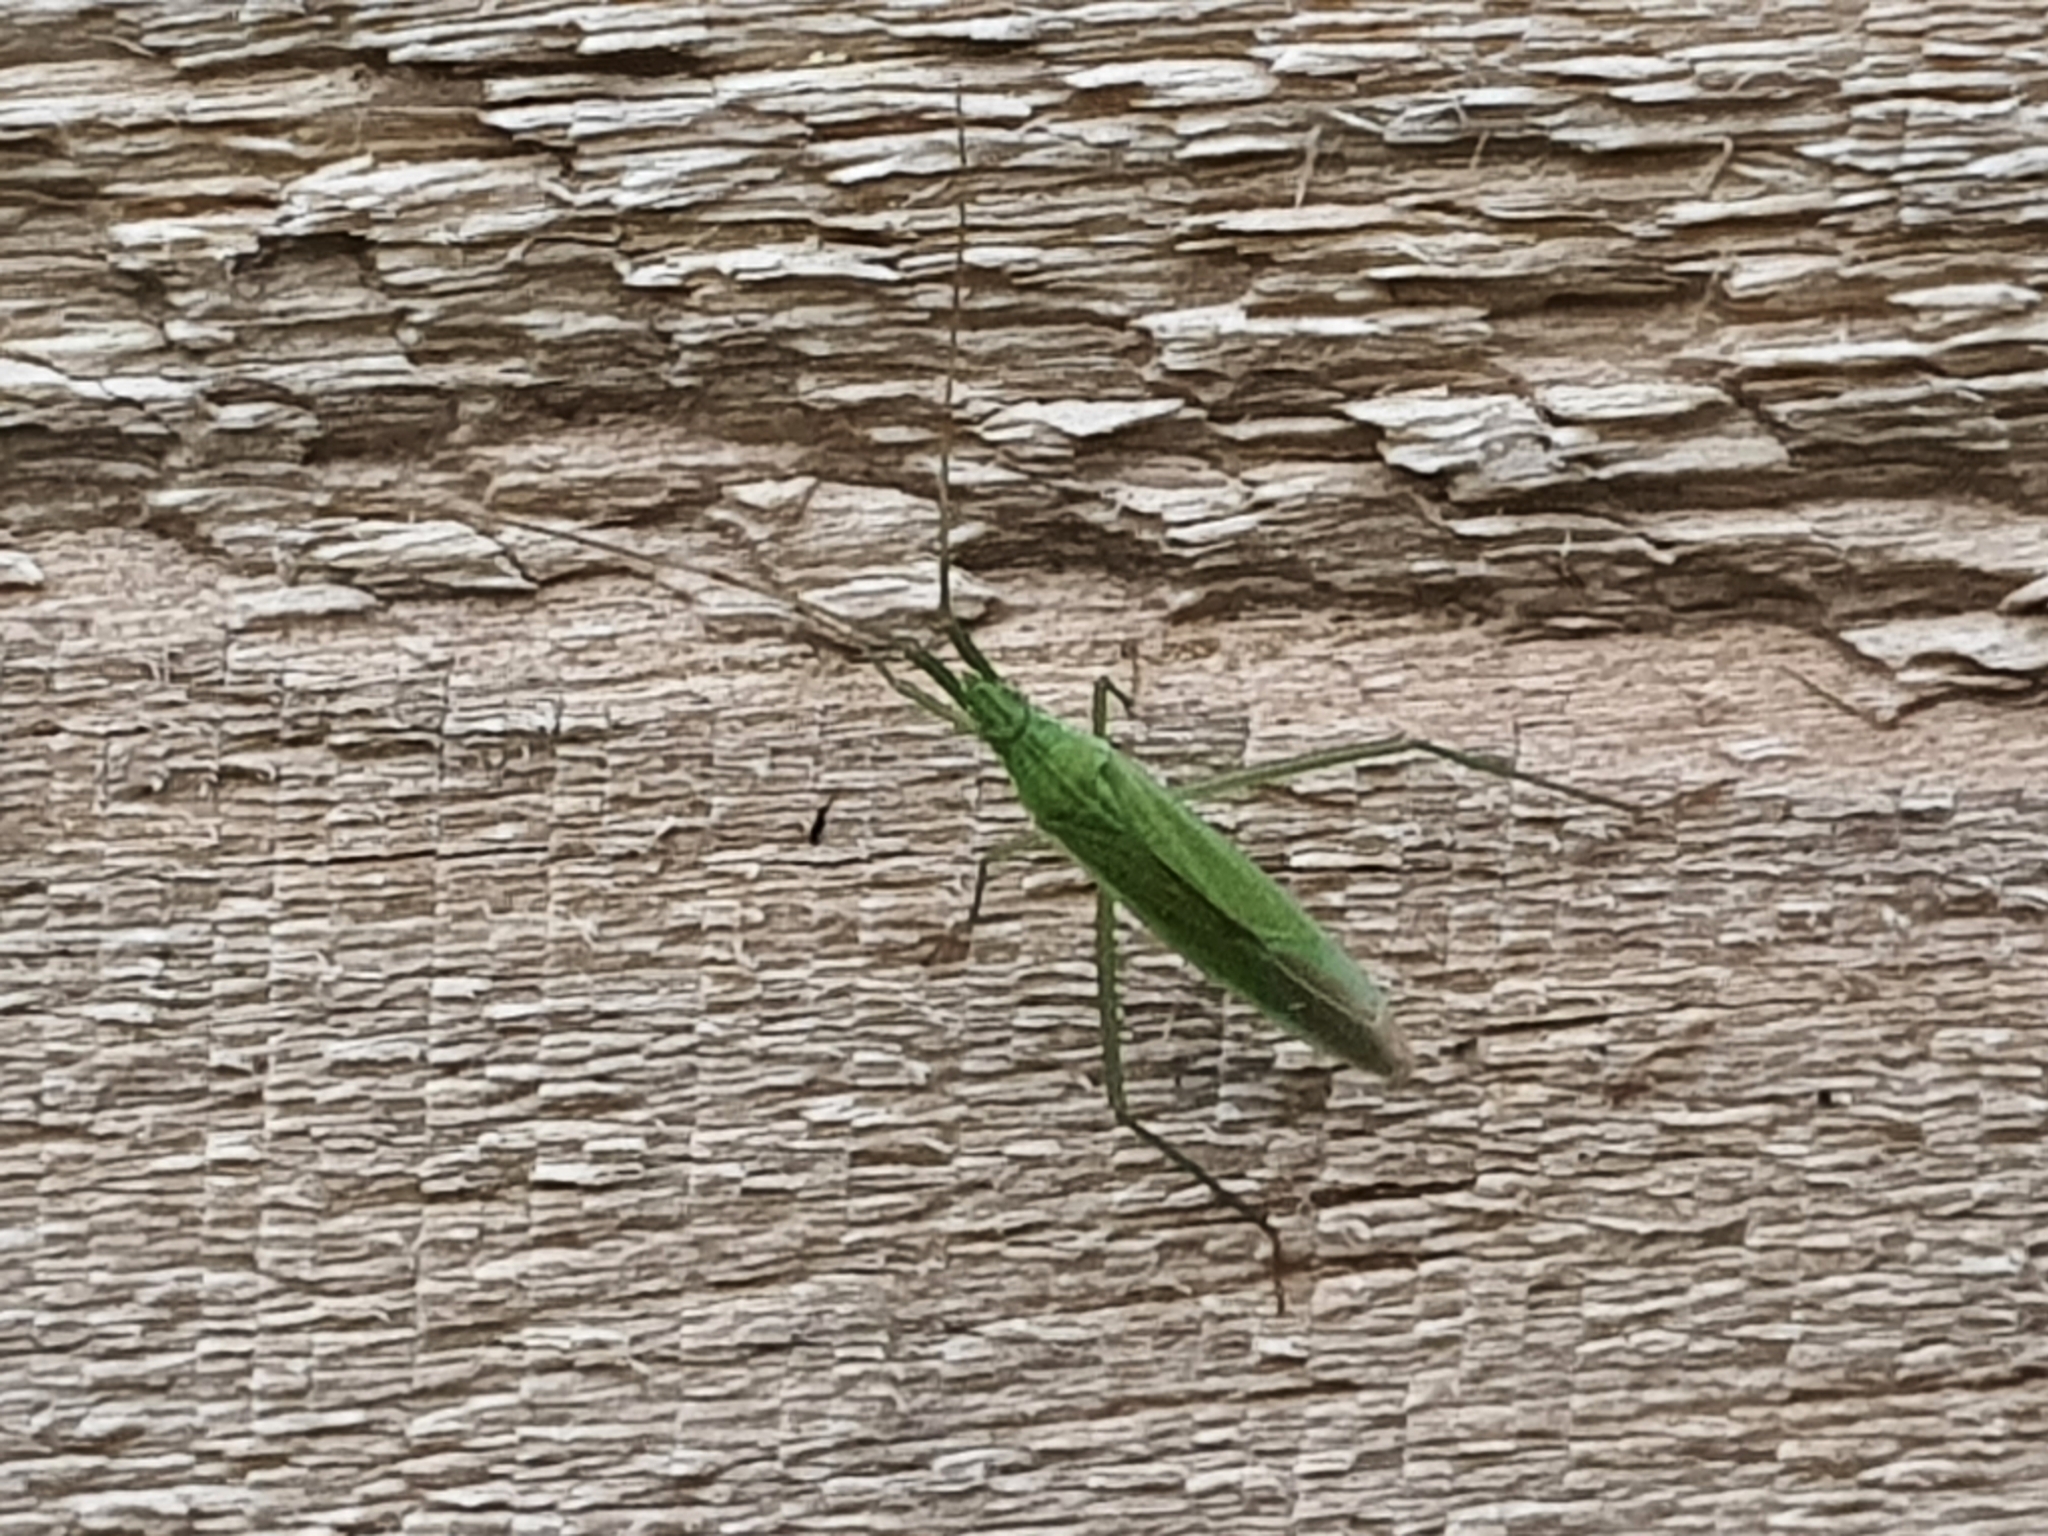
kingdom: Animalia
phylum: Arthropoda
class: Insecta
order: Hemiptera
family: Miridae
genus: Chaetedus
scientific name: Chaetedus longiceps
